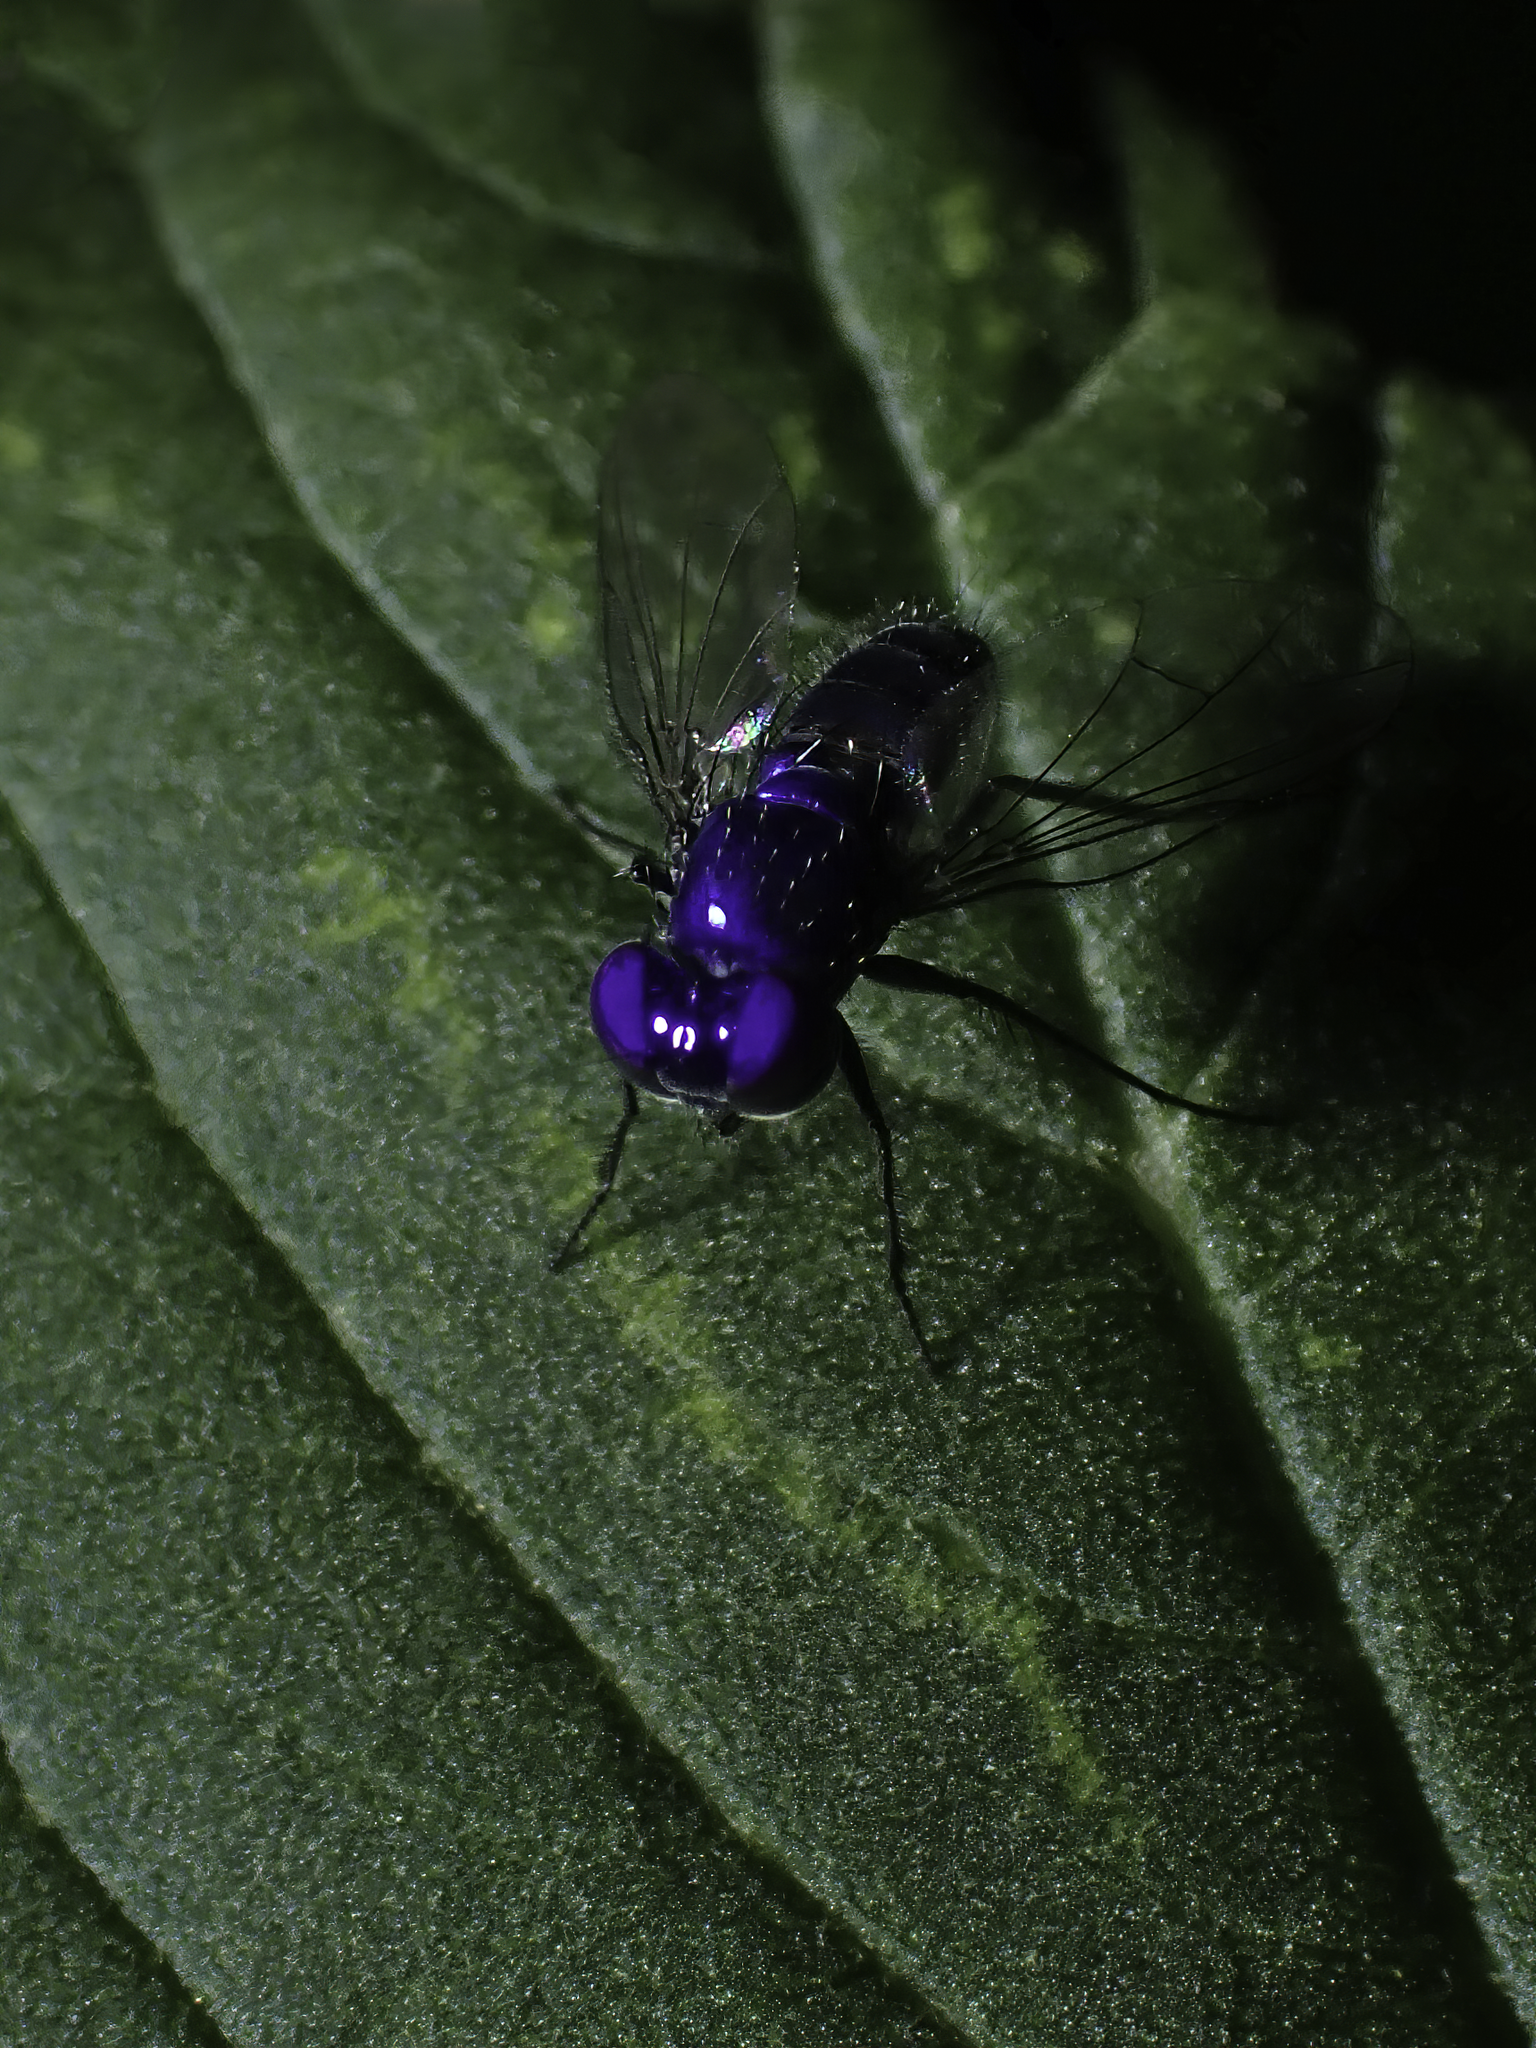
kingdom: Animalia
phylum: Arthropoda
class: Insecta
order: Diptera
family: Dolichopodidae
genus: Condylostylus
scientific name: Condylostylus mundus
